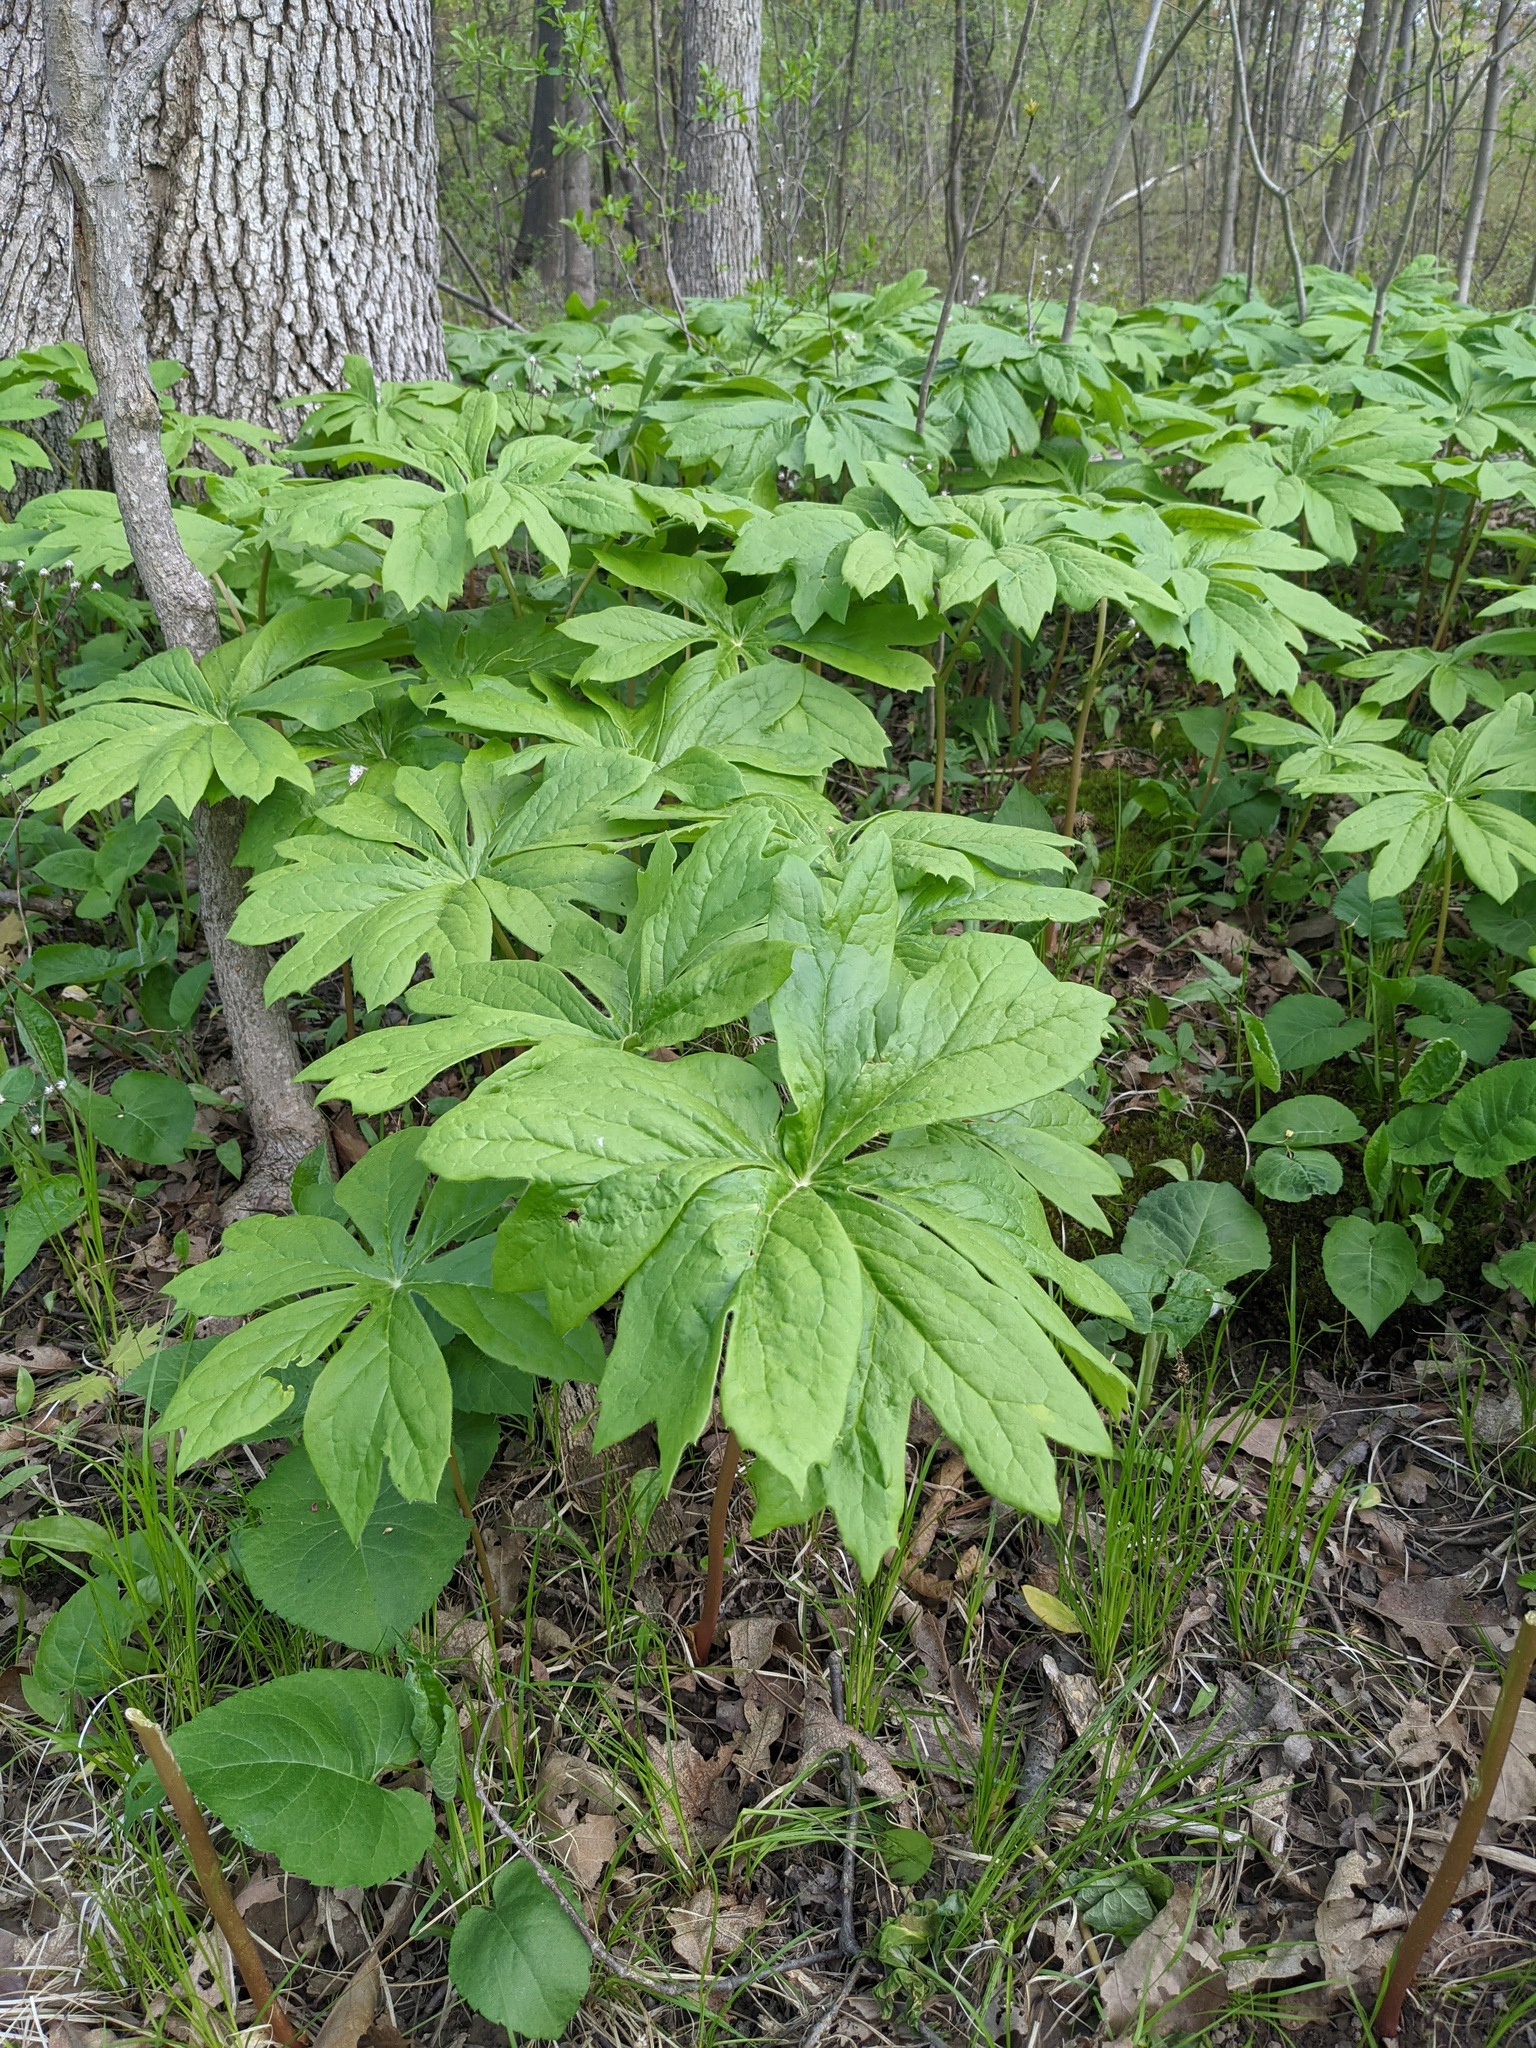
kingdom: Plantae
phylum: Tracheophyta
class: Magnoliopsida
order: Ranunculales
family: Berberidaceae
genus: Podophyllum
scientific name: Podophyllum peltatum
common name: Wild mandrake
